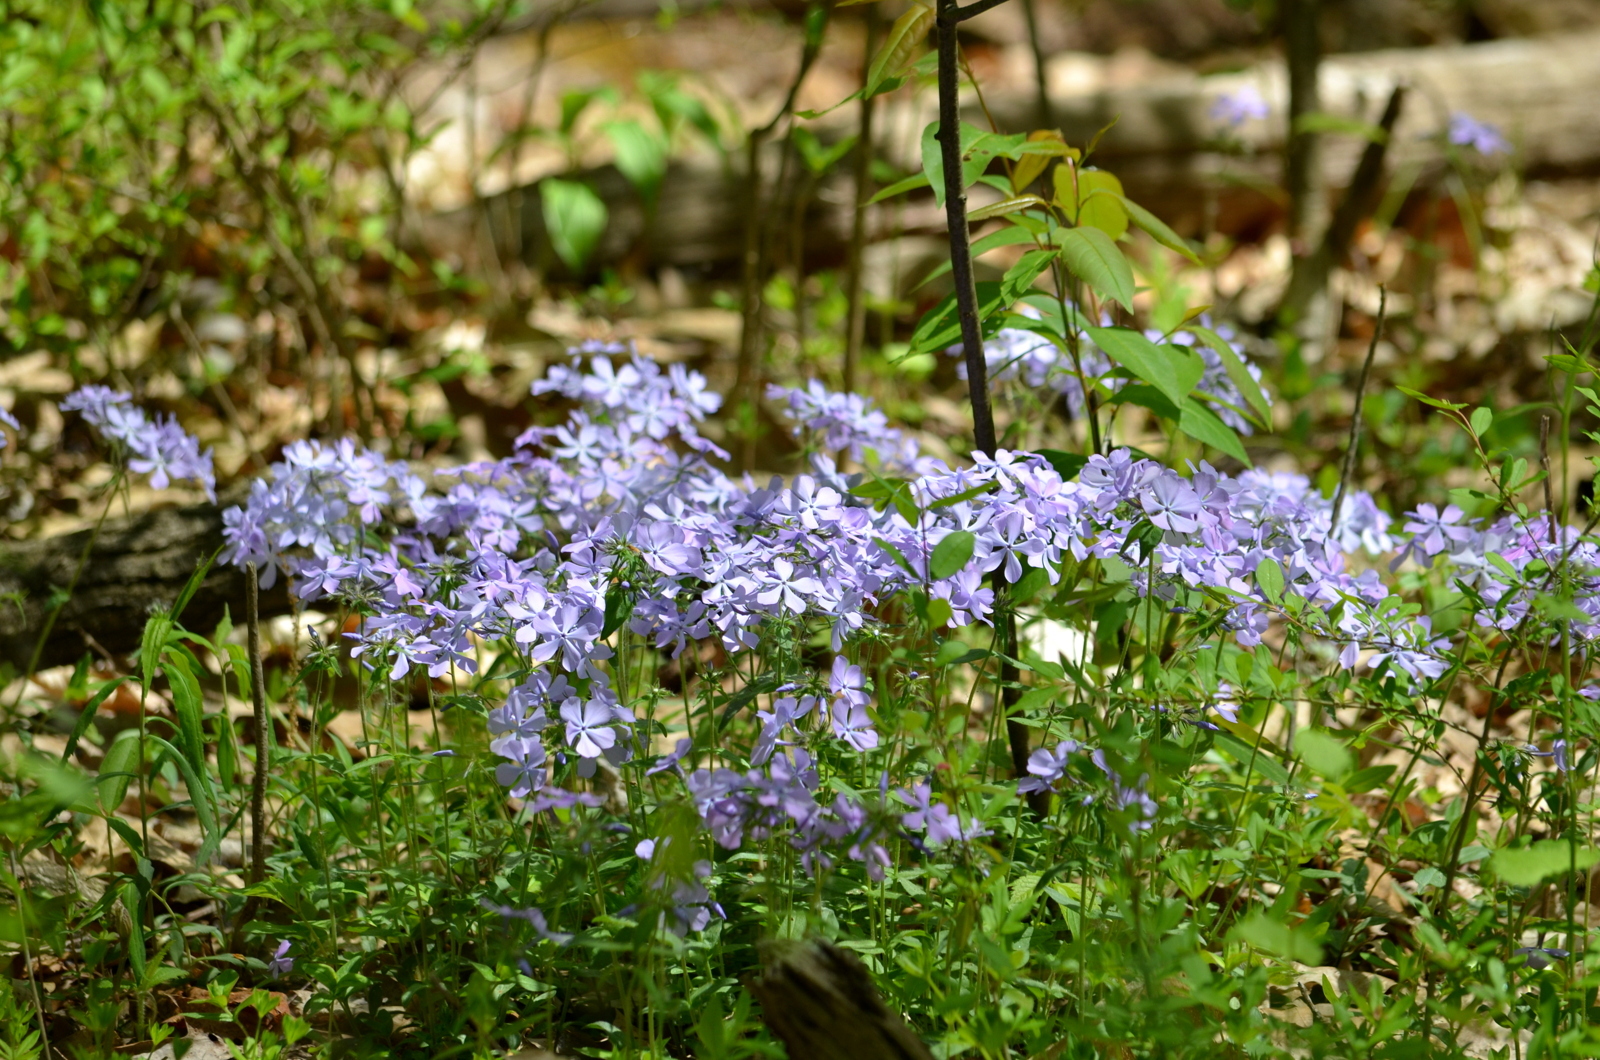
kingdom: Plantae
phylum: Tracheophyta
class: Magnoliopsida
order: Ericales
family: Polemoniaceae
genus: Phlox
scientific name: Phlox divaricata
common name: Blue phlox
